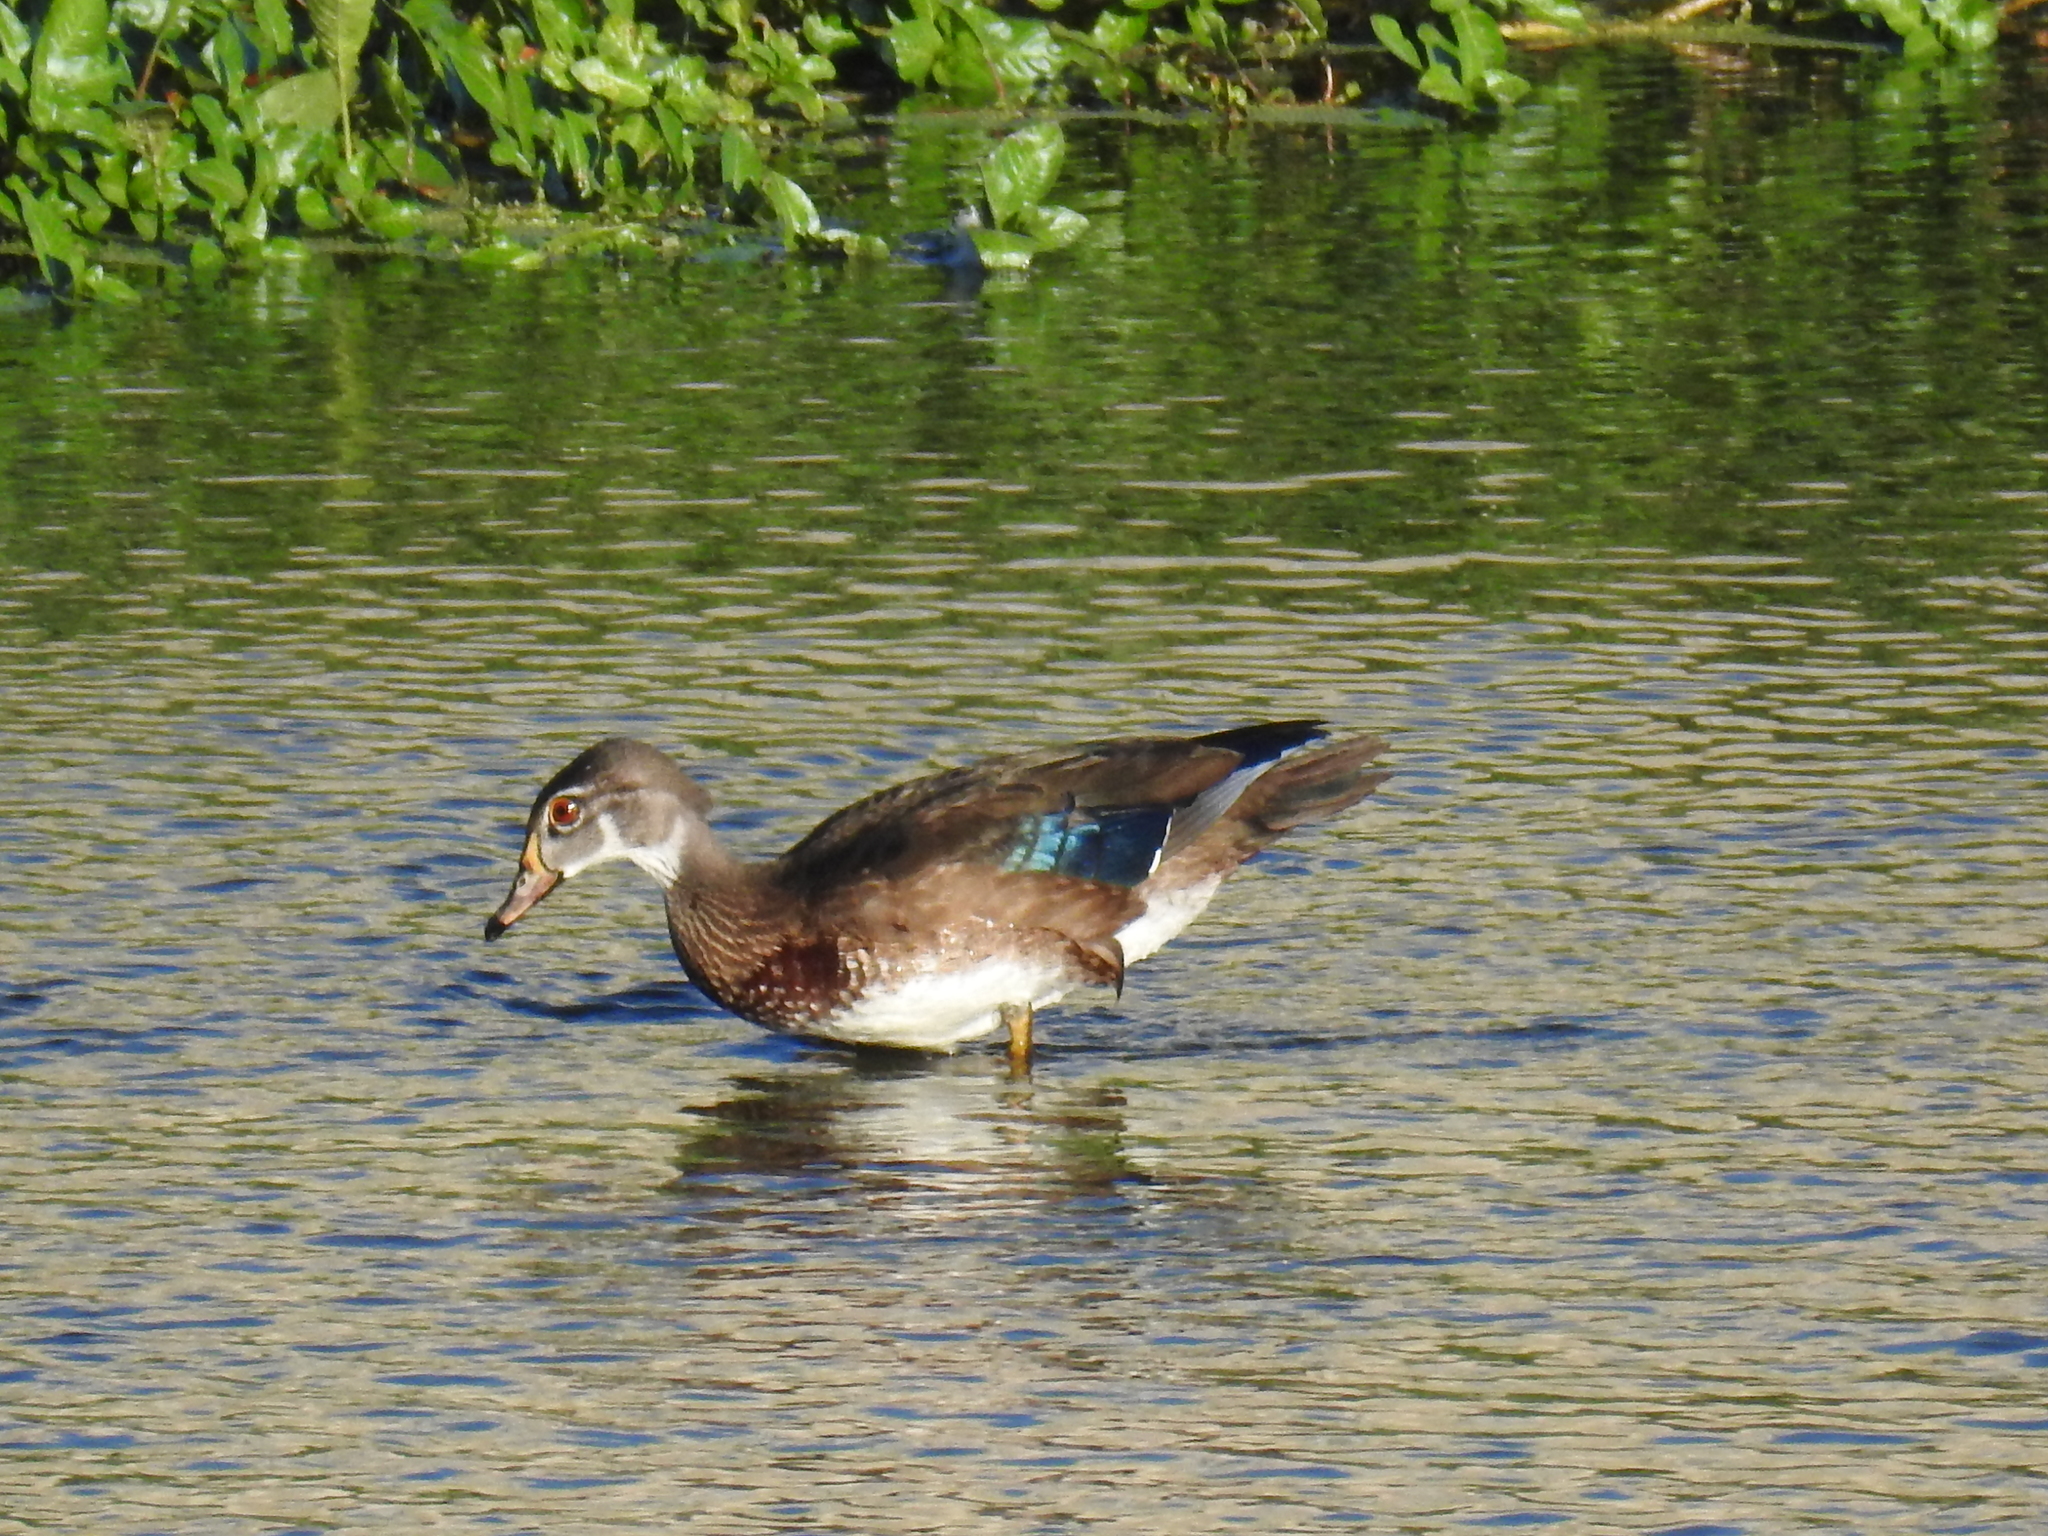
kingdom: Animalia
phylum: Chordata
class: Aves
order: Anseriformes
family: Anatidae
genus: Aix
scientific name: Aix sponsa
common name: Wood duck
